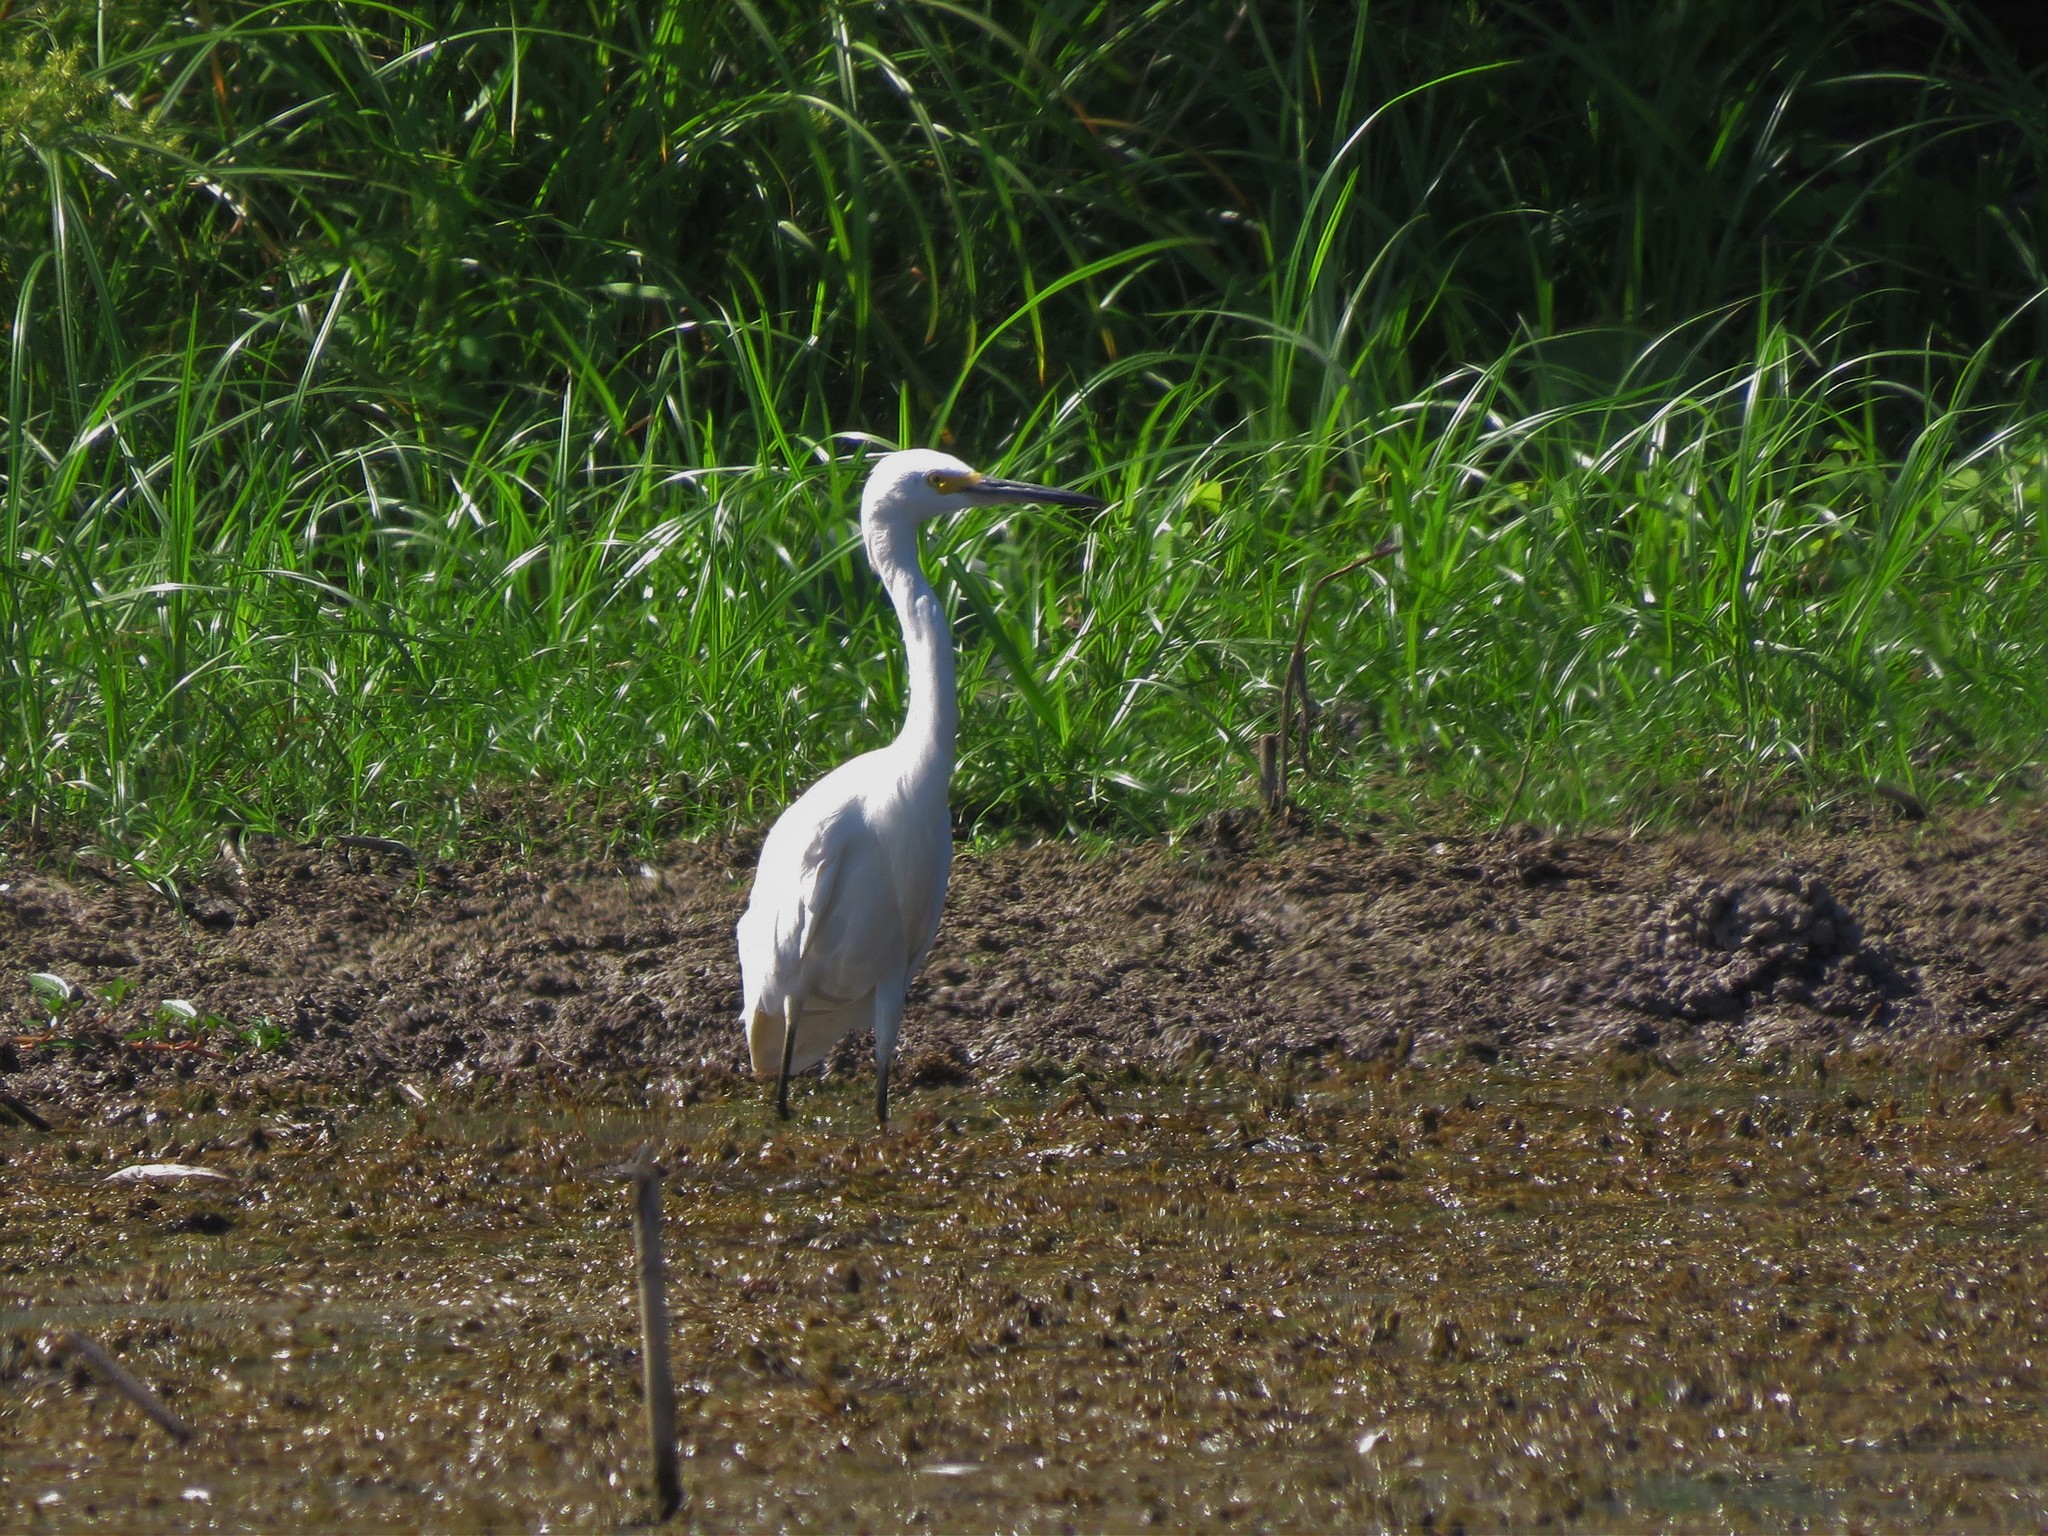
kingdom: Animalia
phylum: Chordata
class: Aves
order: Pelecaniformes
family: Ardeidae
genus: Egretta
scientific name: Egretta thula
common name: Snowy egret
